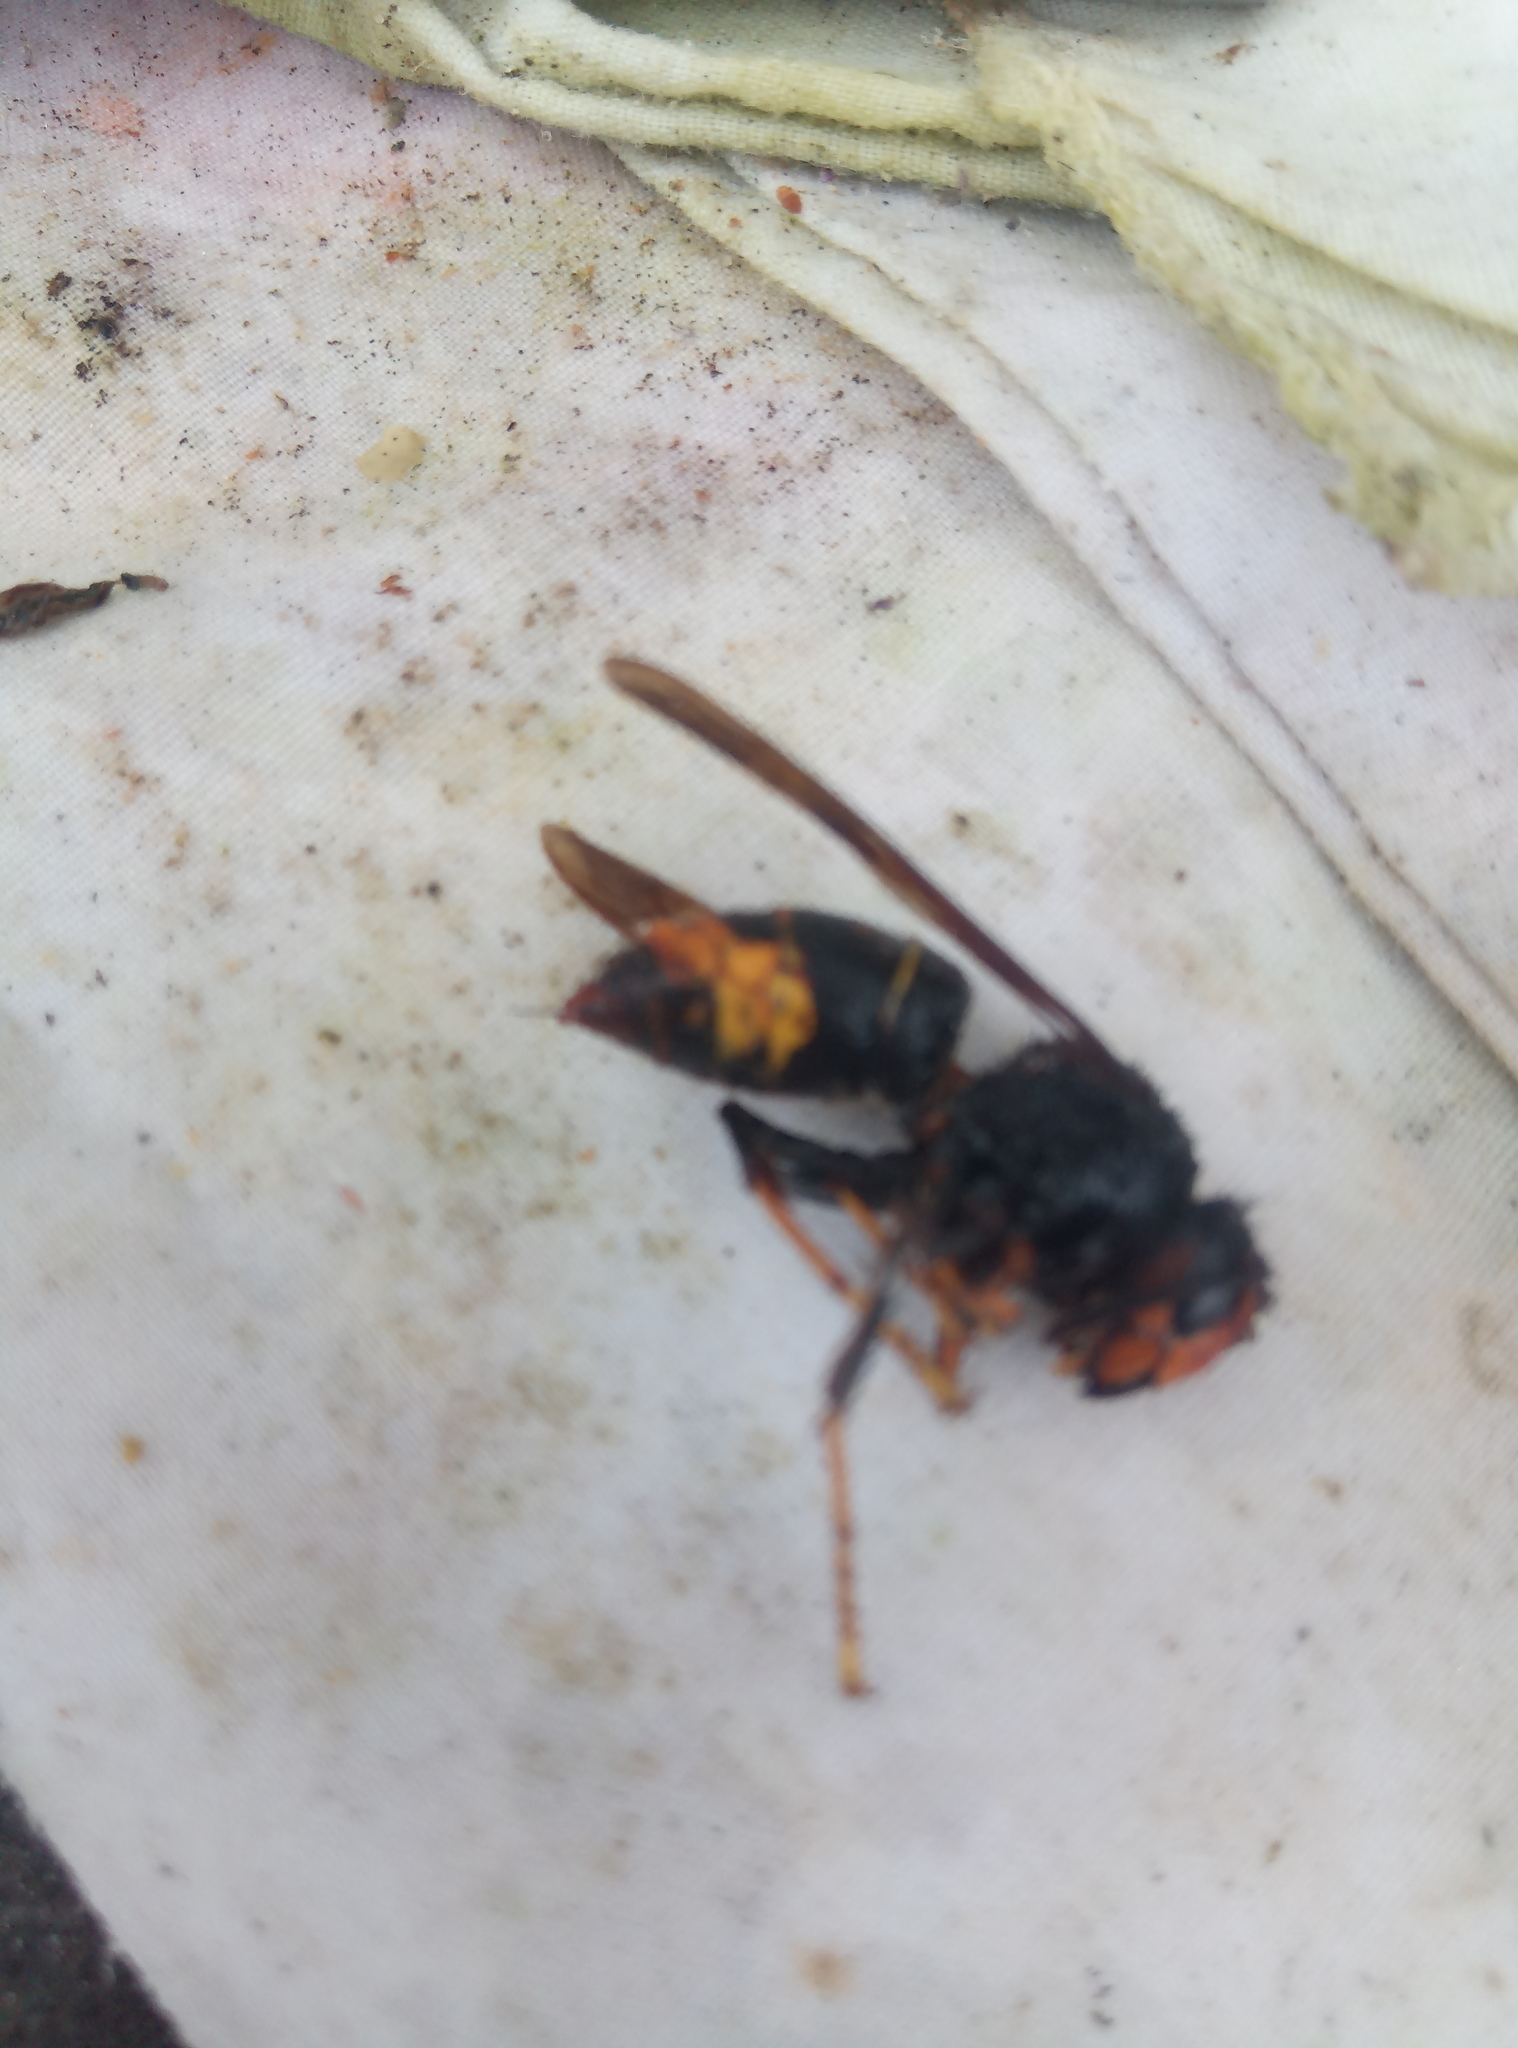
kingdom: Animalia
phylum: Arthropoda
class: Insecta
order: Hymenoptera
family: Vespidae
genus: Vespa
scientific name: Vespa velutina
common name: Asian hornet
